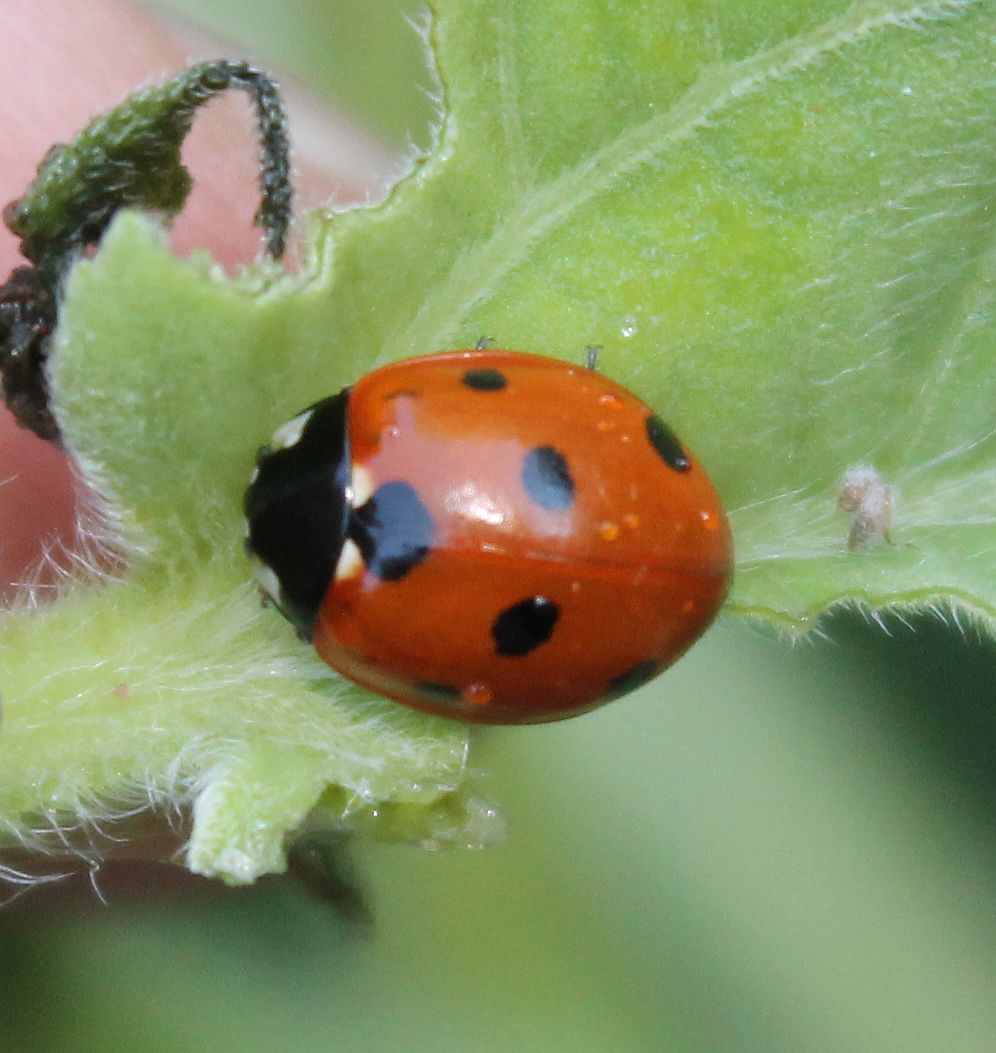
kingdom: Animalia
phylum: Arthropoda
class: Insecta
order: Coleoptera
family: Coccinellidae
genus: Coccinella
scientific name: Coccinella septempunctata
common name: Sevenspotted lady beetle
